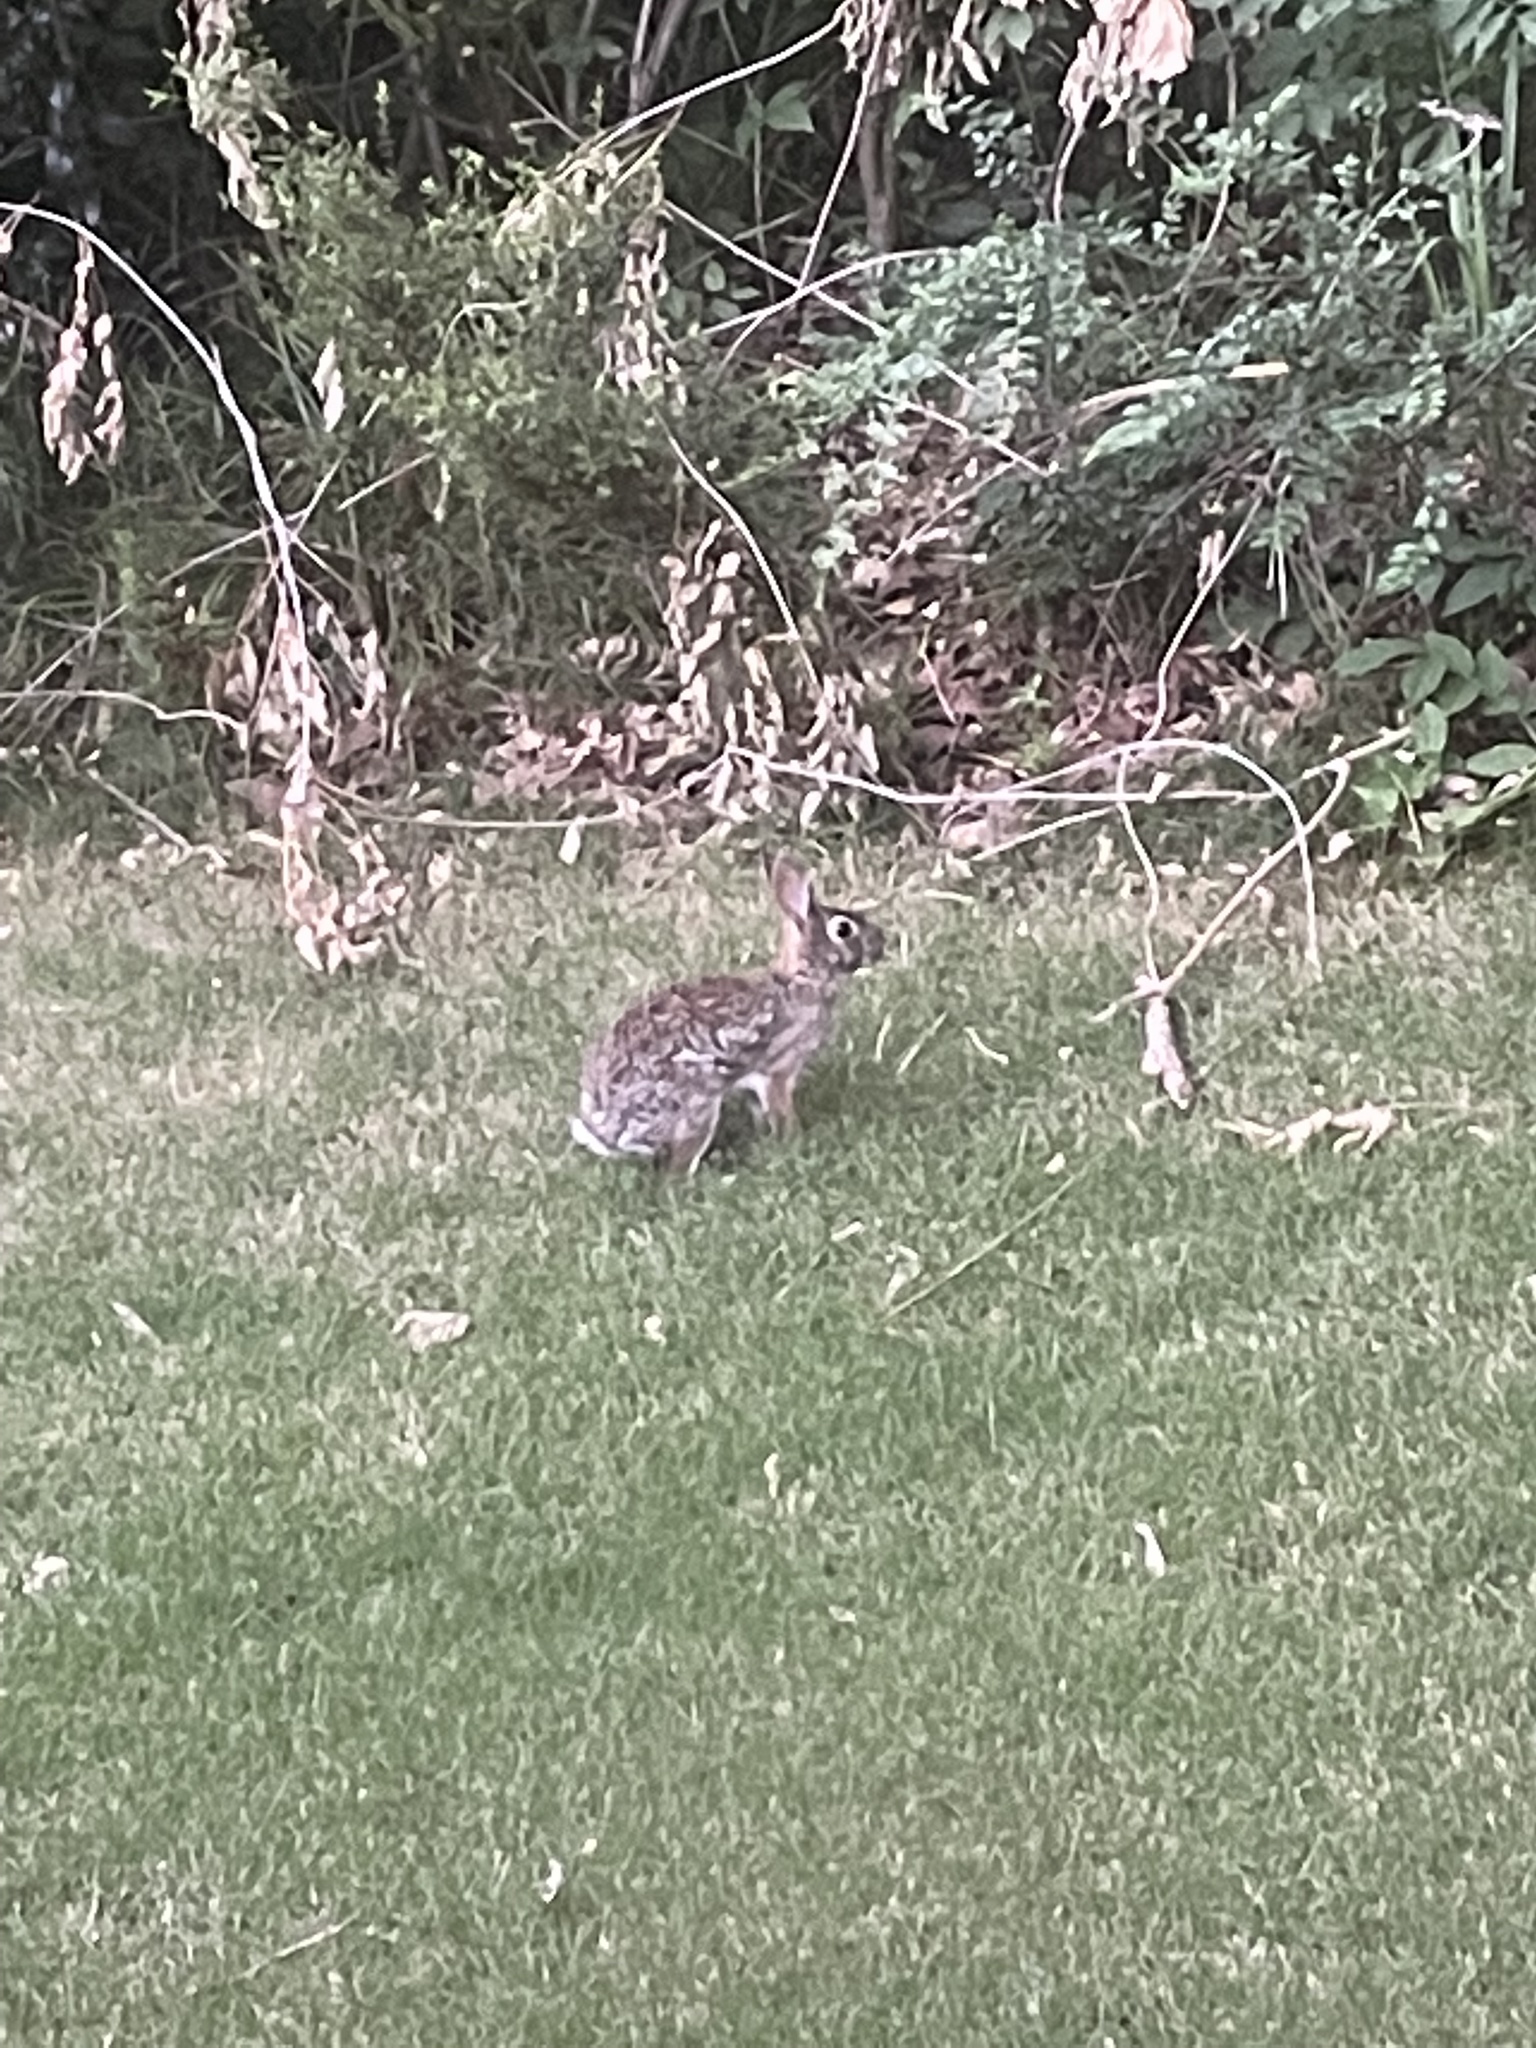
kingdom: Animalia
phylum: Chordata
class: Mammalia
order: Lagomorpha
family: Leporidae
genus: Sylvilagus
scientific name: Sylvilagus floridanus
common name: Eastern cottontail
